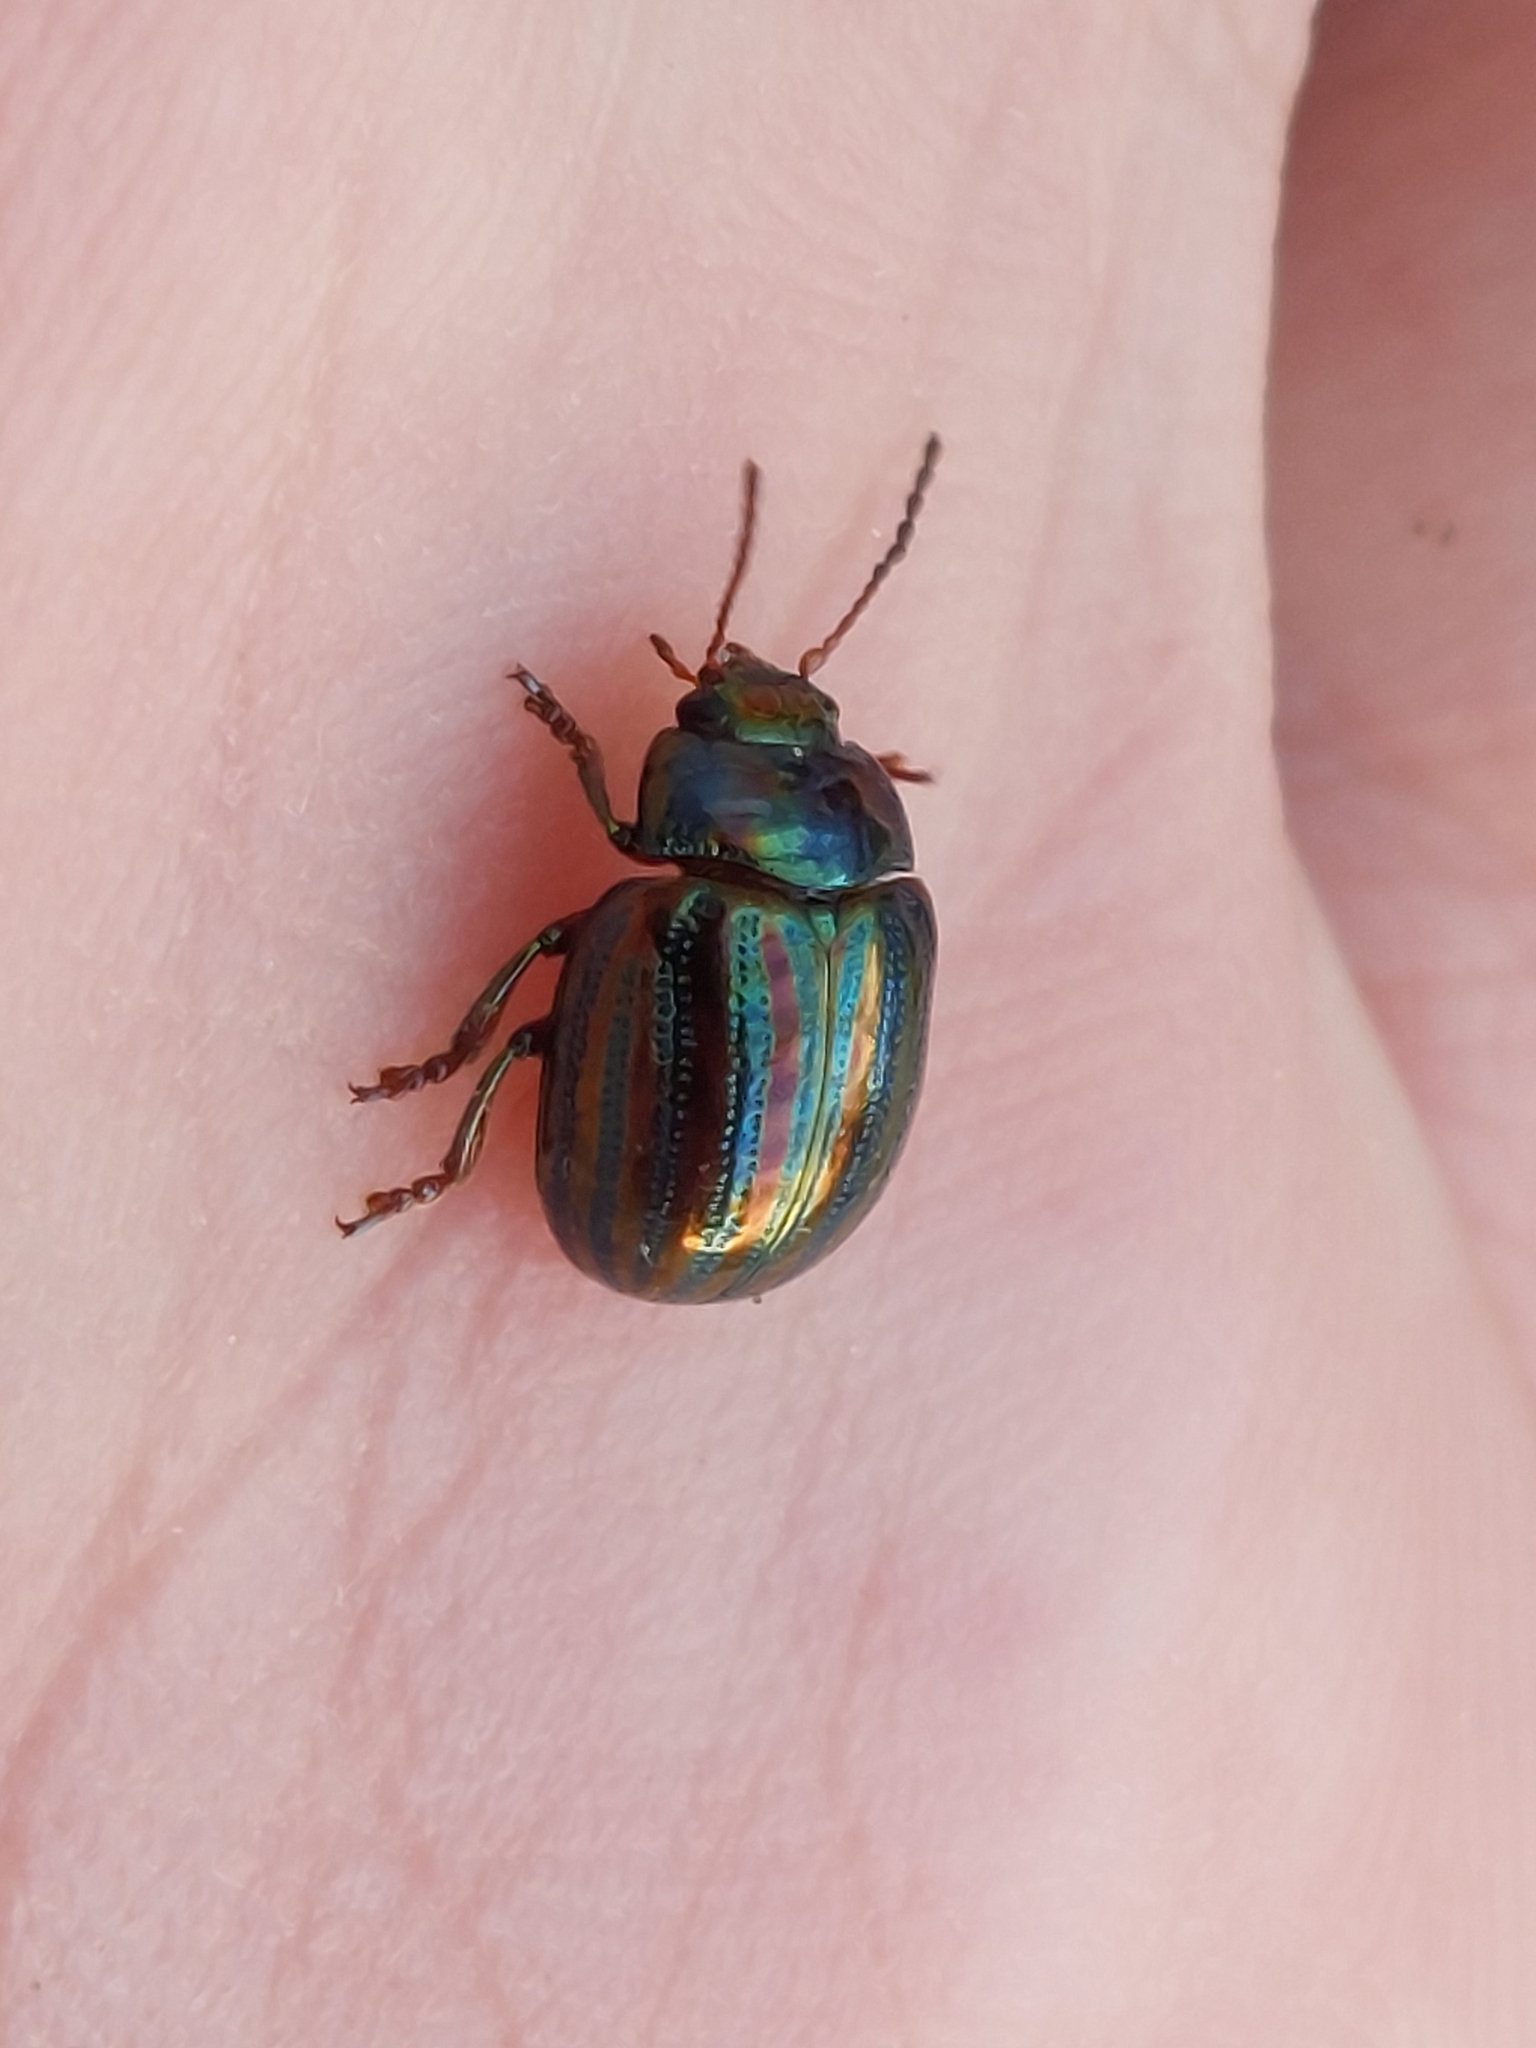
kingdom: Animalia
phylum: Arthropoda
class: Insecta
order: Coleoptera
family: Chrysomelidae
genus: Chrysolina
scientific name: Chrysolina americana
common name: Rosemary beetle
